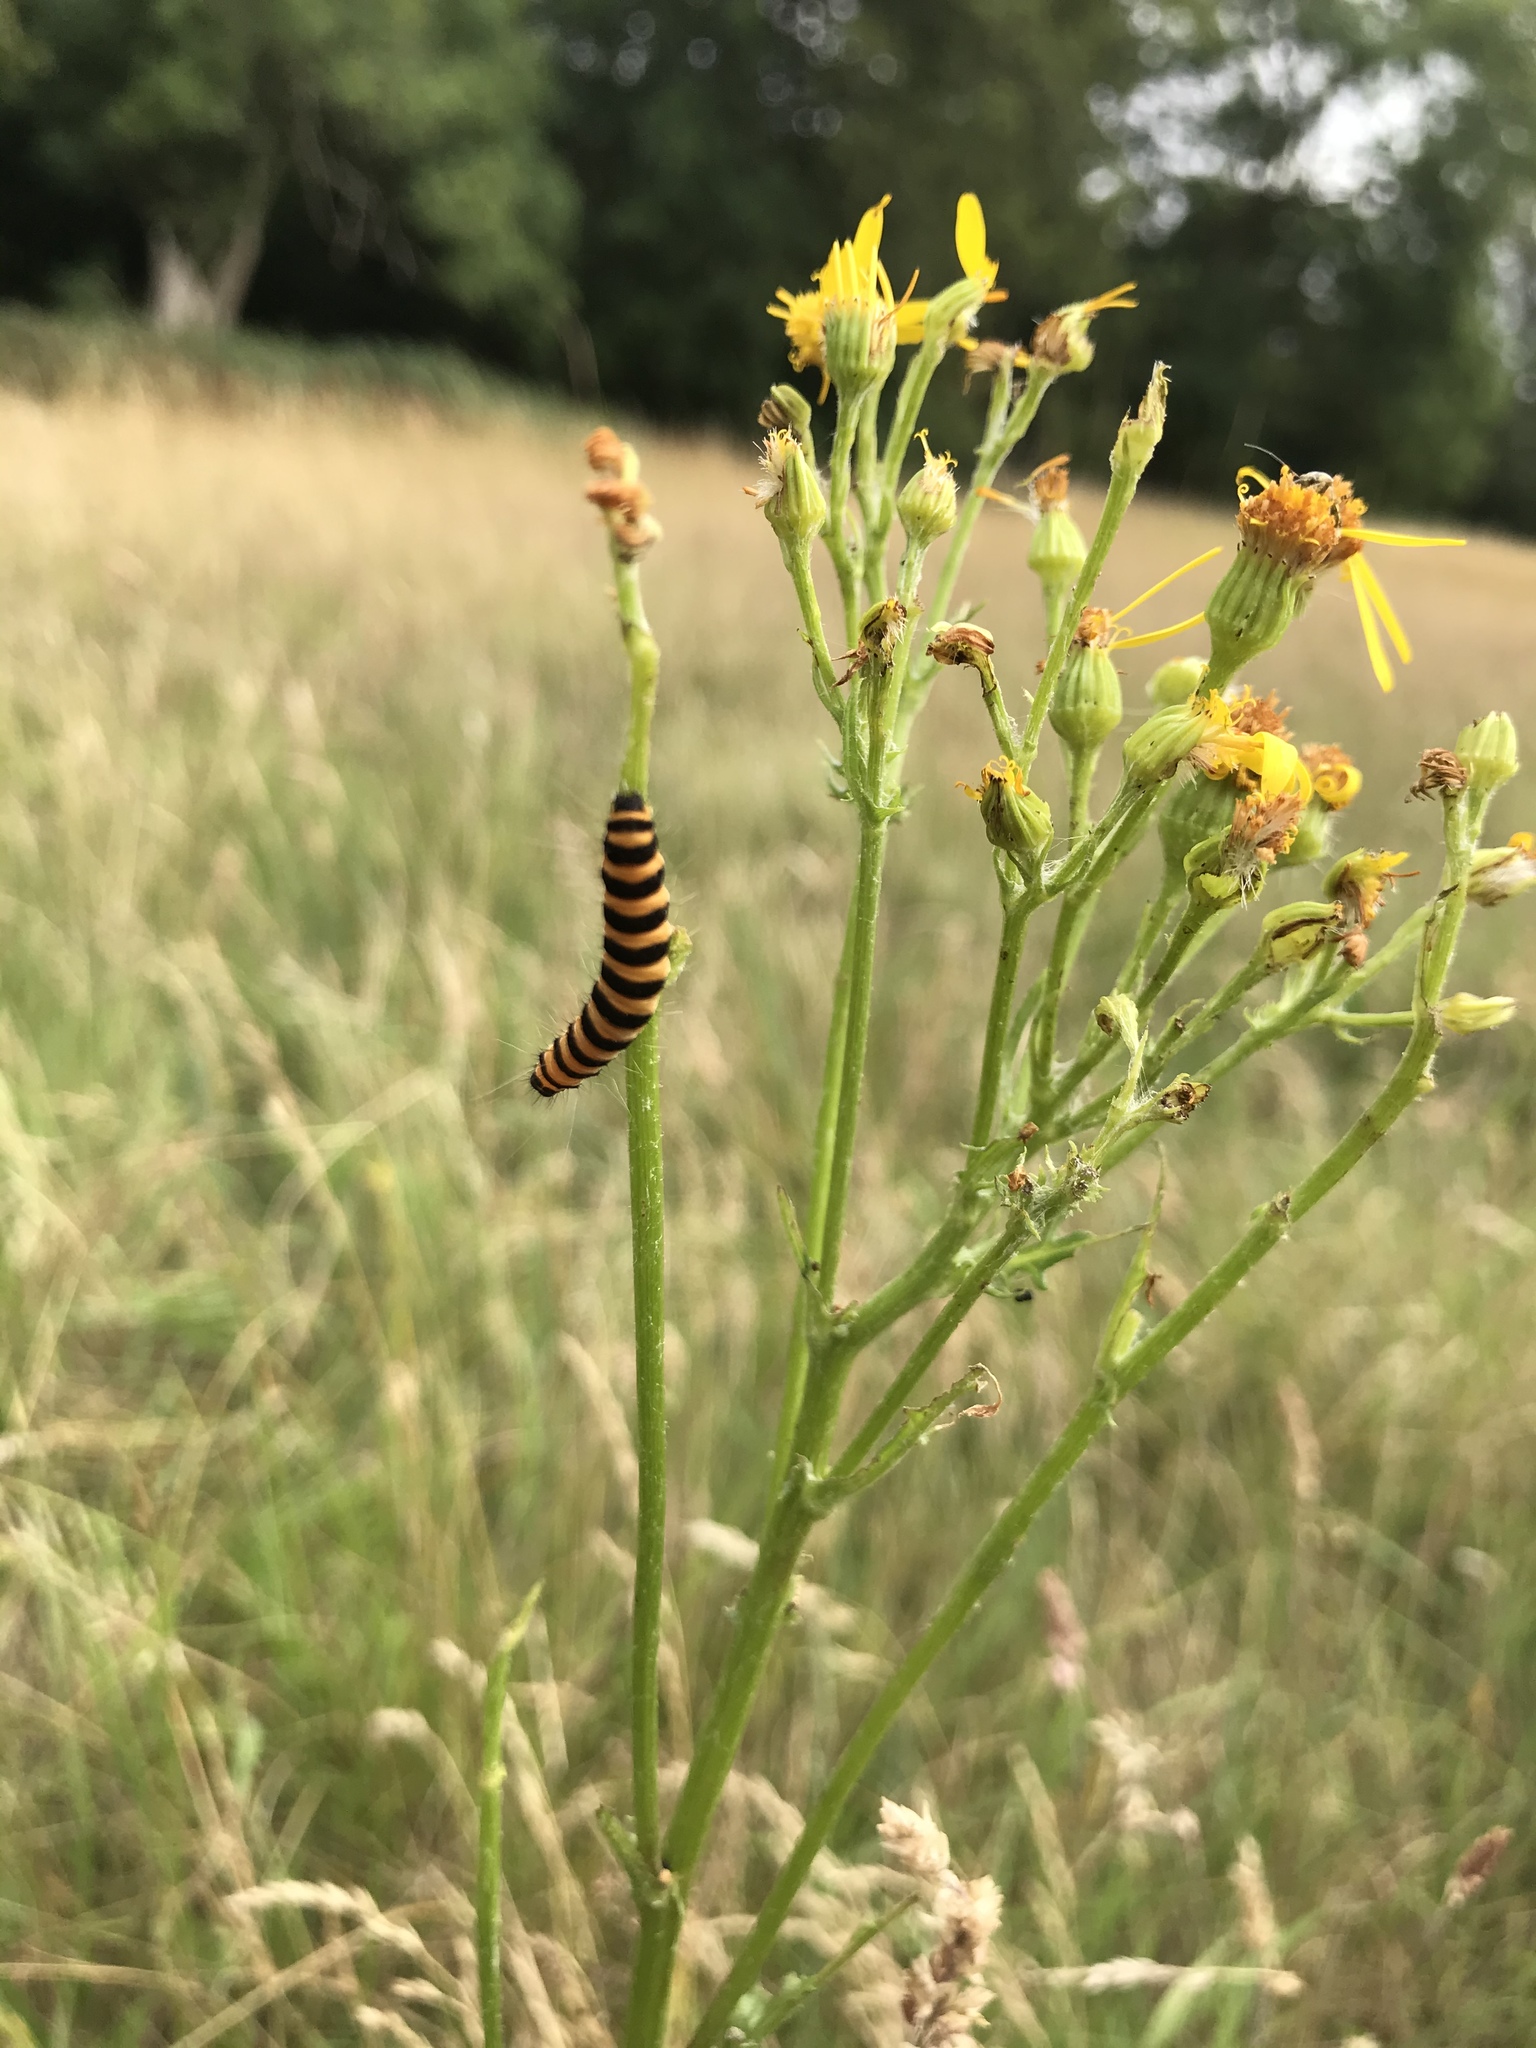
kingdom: Animalia
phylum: Arthropoda
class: Insecta
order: Lepidoptera
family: Erebidae
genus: Tyria
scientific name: Tyria jacobaeae
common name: Cinnabar
